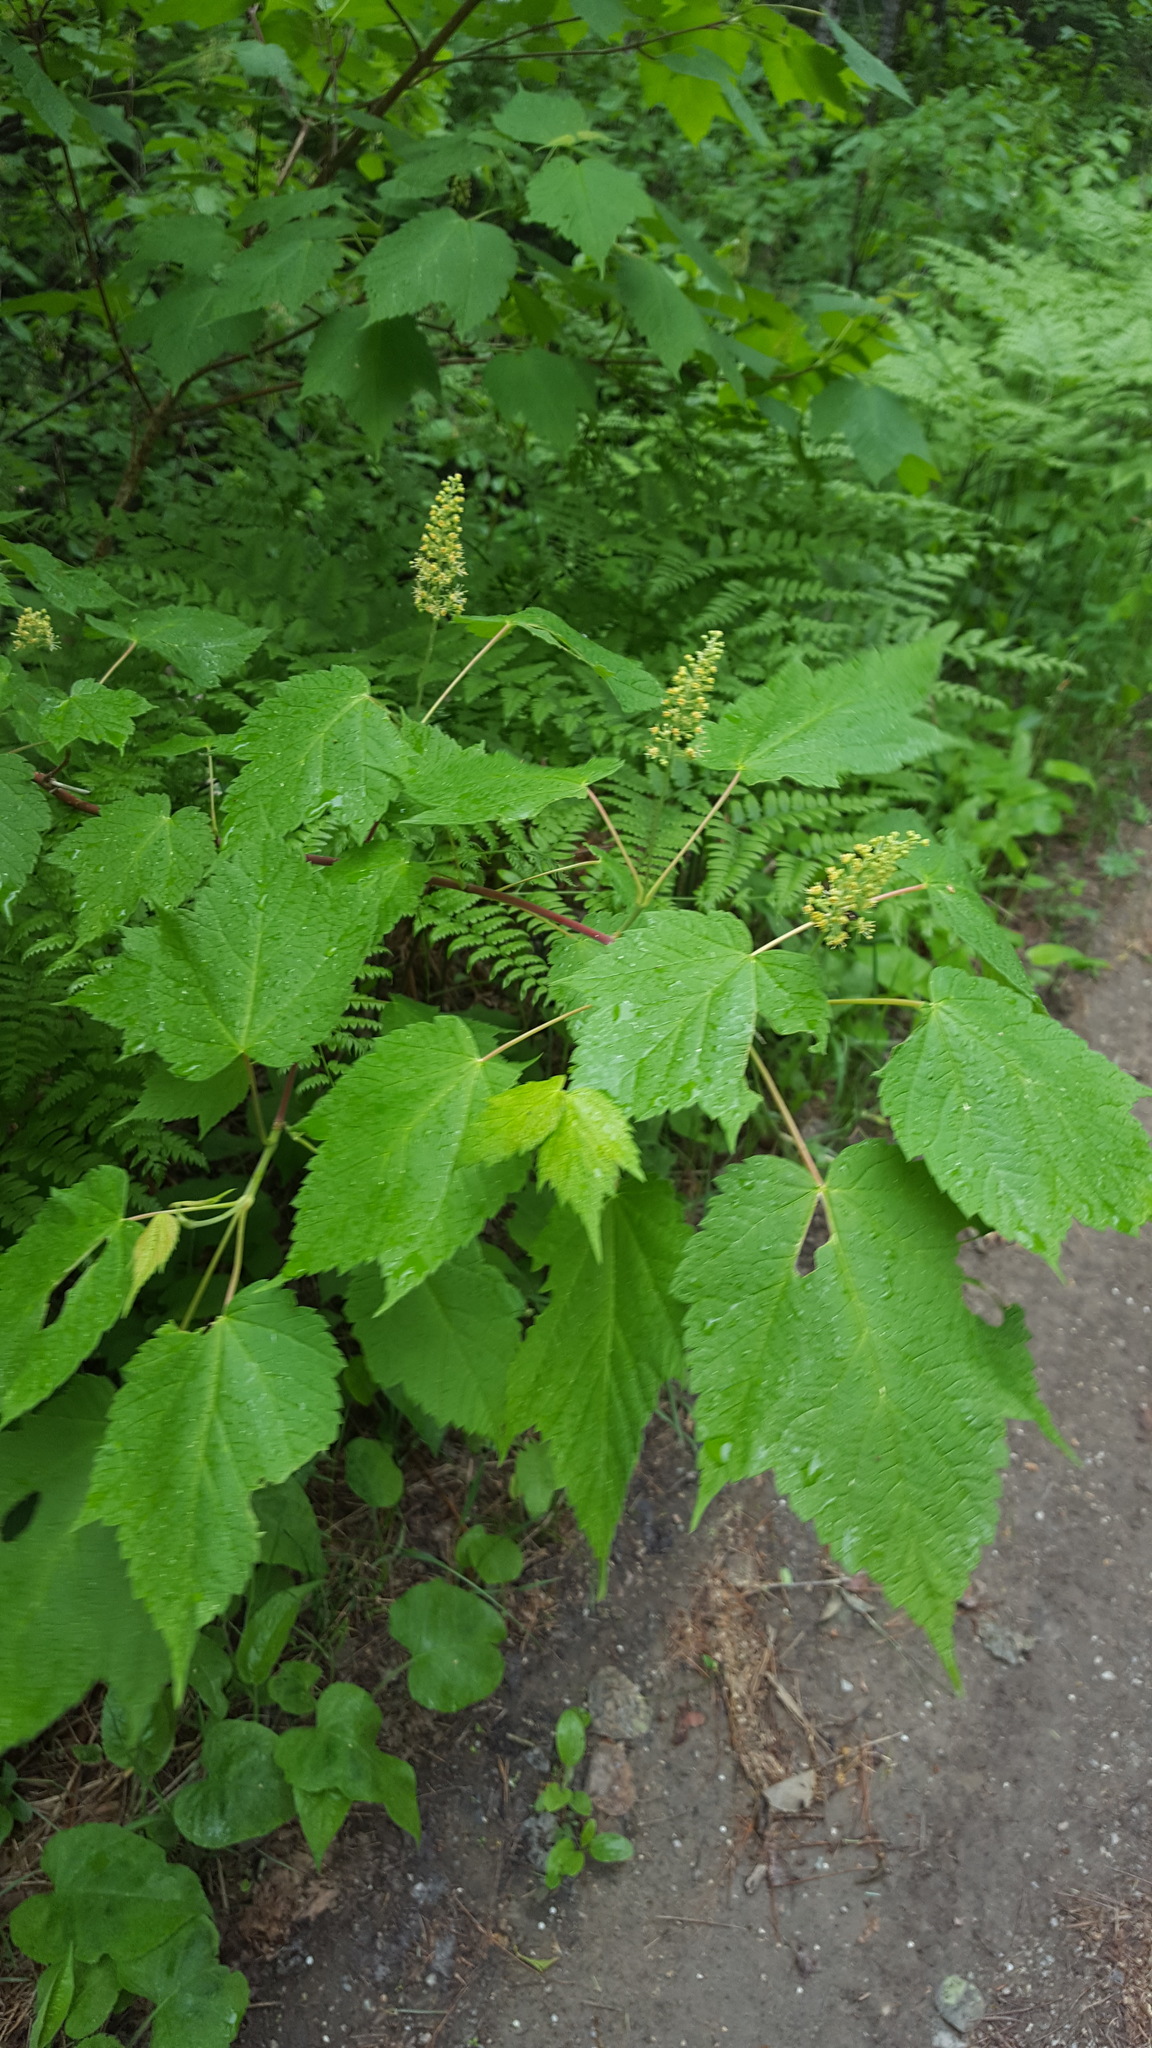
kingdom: Plantae
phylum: Tracheophyta
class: Magnoliopsida
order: Sapindales
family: Sapindaceae
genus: Acer
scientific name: Acer spicatum
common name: Mountain maple
